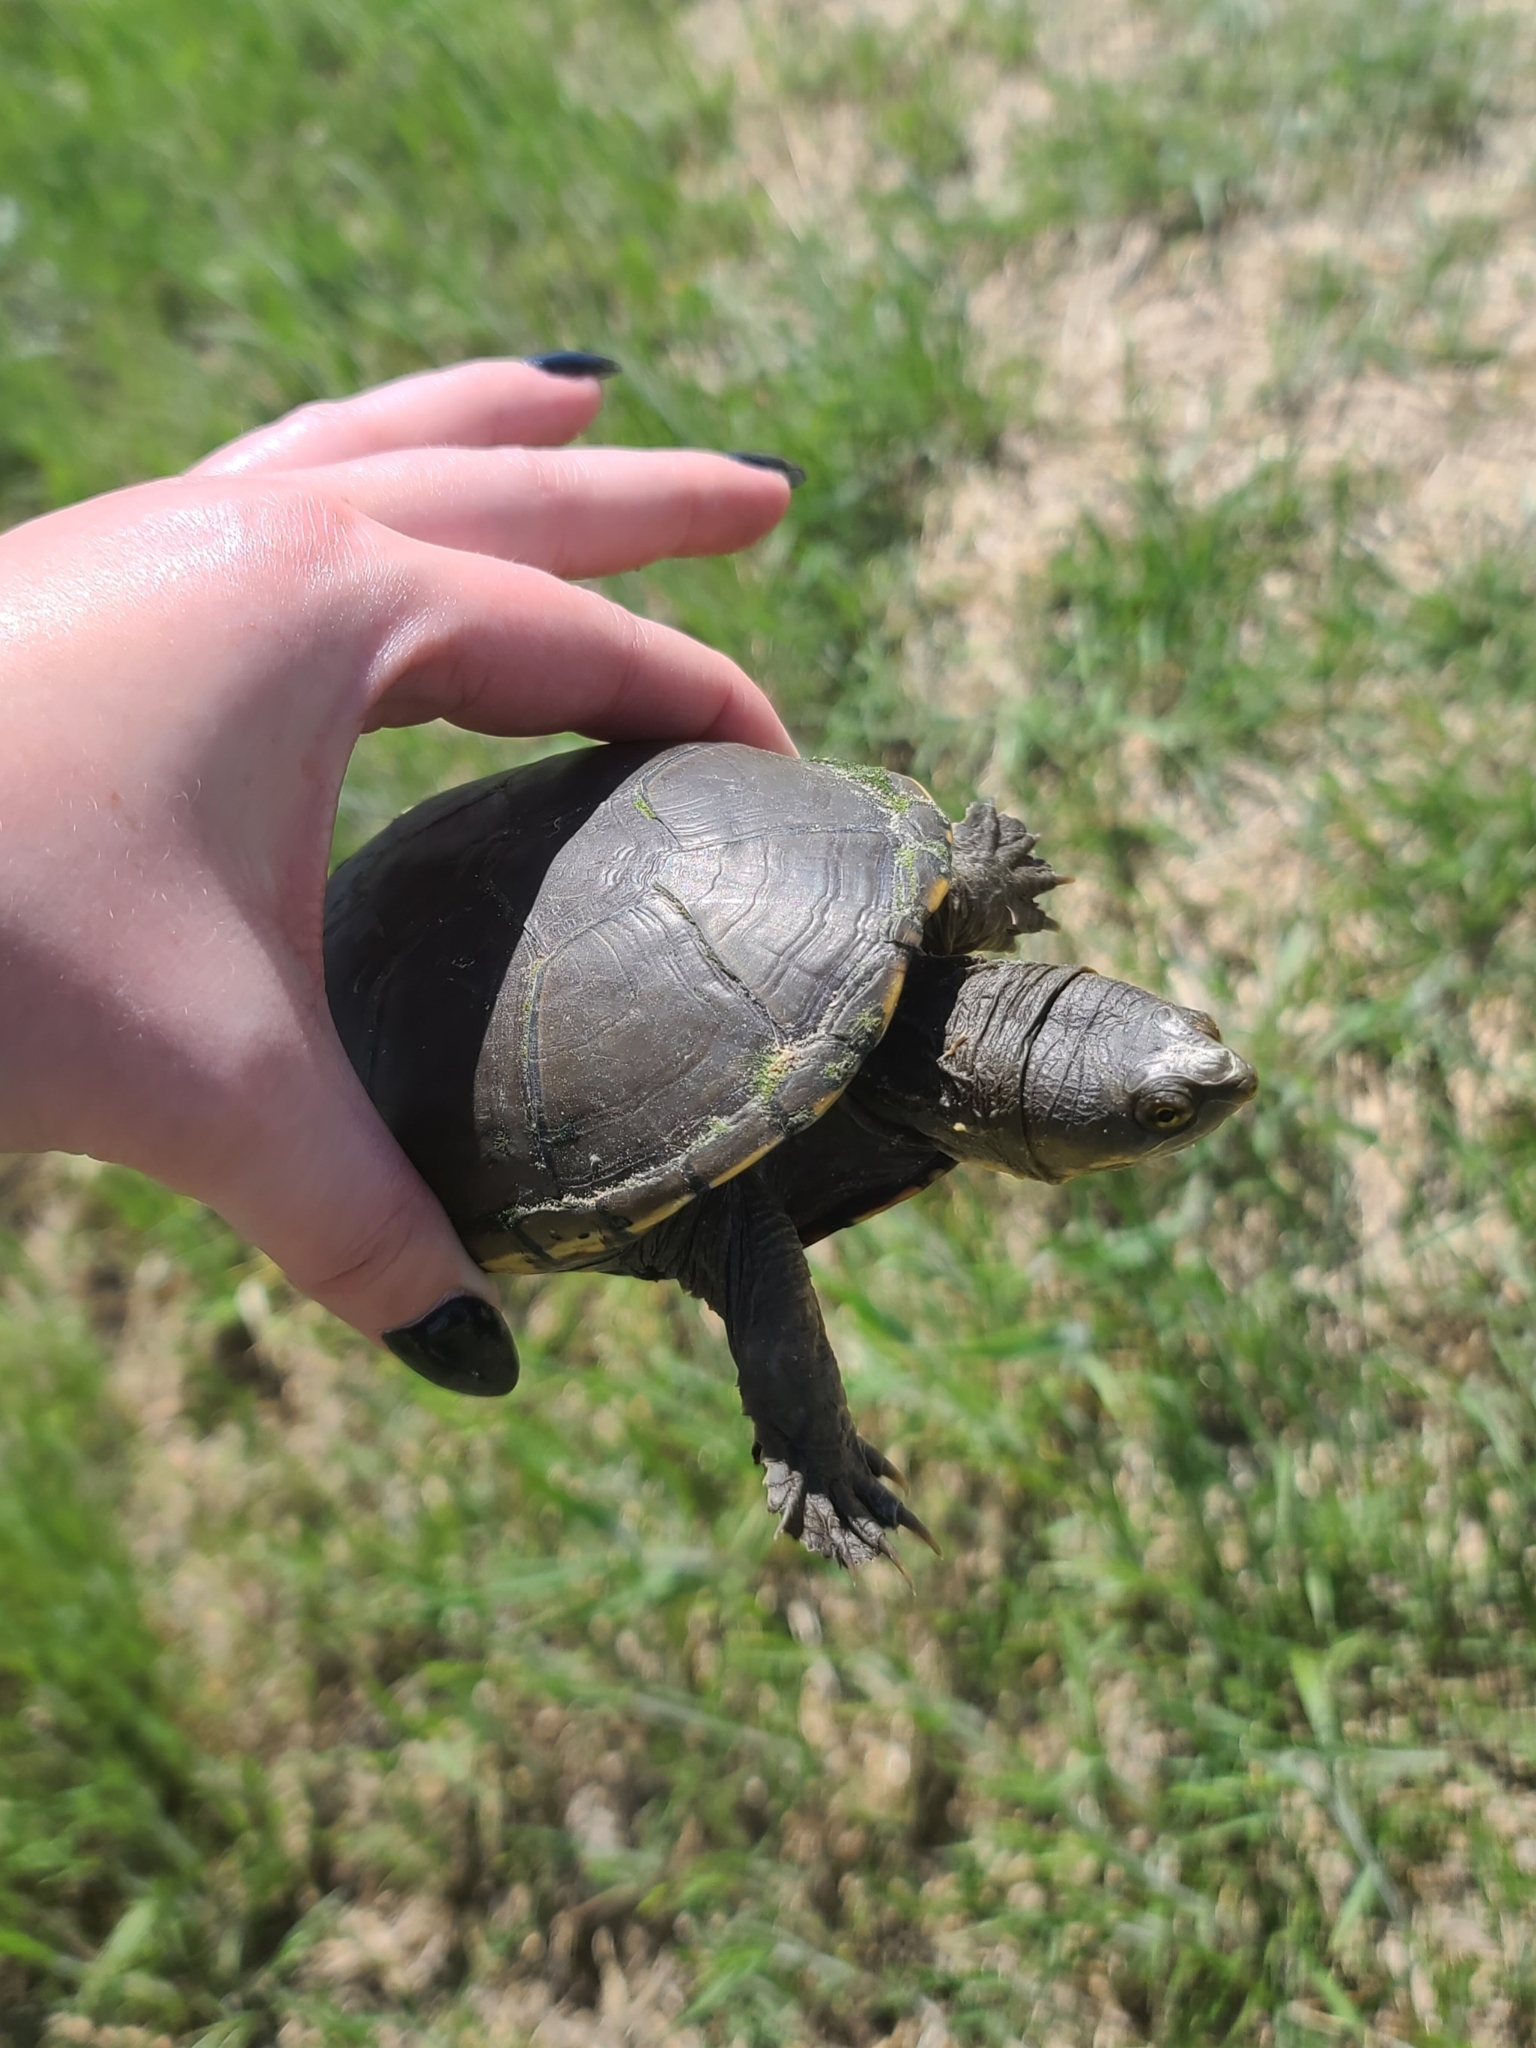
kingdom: Animalia
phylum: Chordata
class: Testudines
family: Kinosternidae
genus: Kinosternon
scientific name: Kinosternon flavescens
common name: Yellow mud turtle
